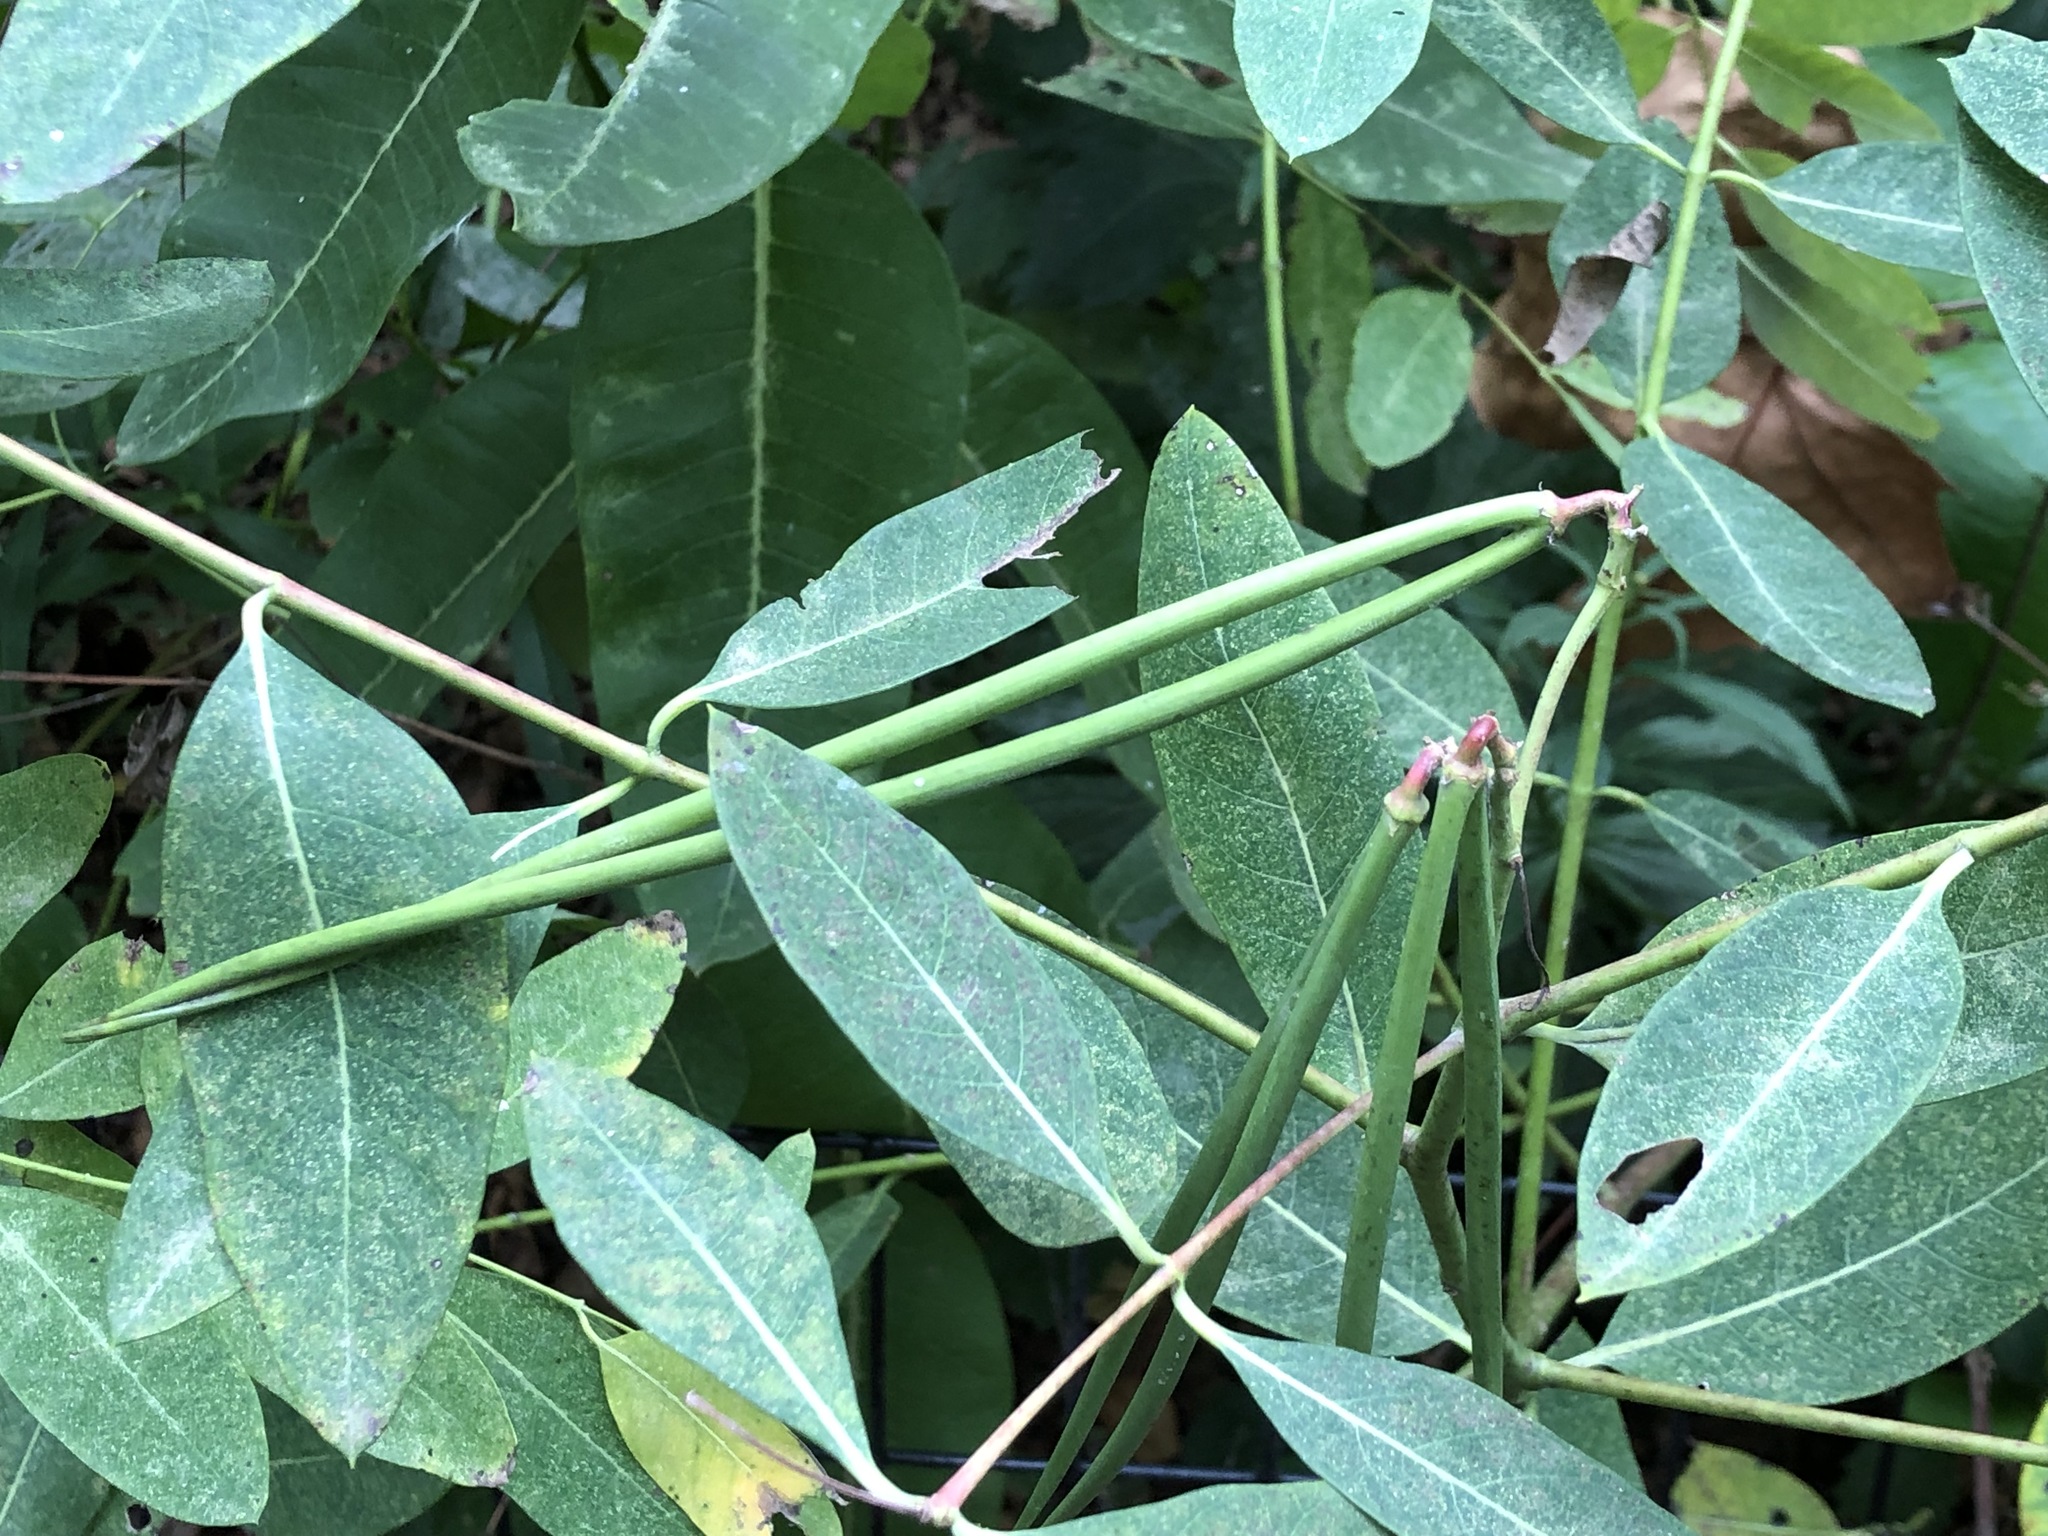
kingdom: Plantae
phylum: Tracheophyta
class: Magnoliopsida
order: Gentianales
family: Apocynaceae
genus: Apocynum
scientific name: Apocynum cannabinum
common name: Hemp dogbane
